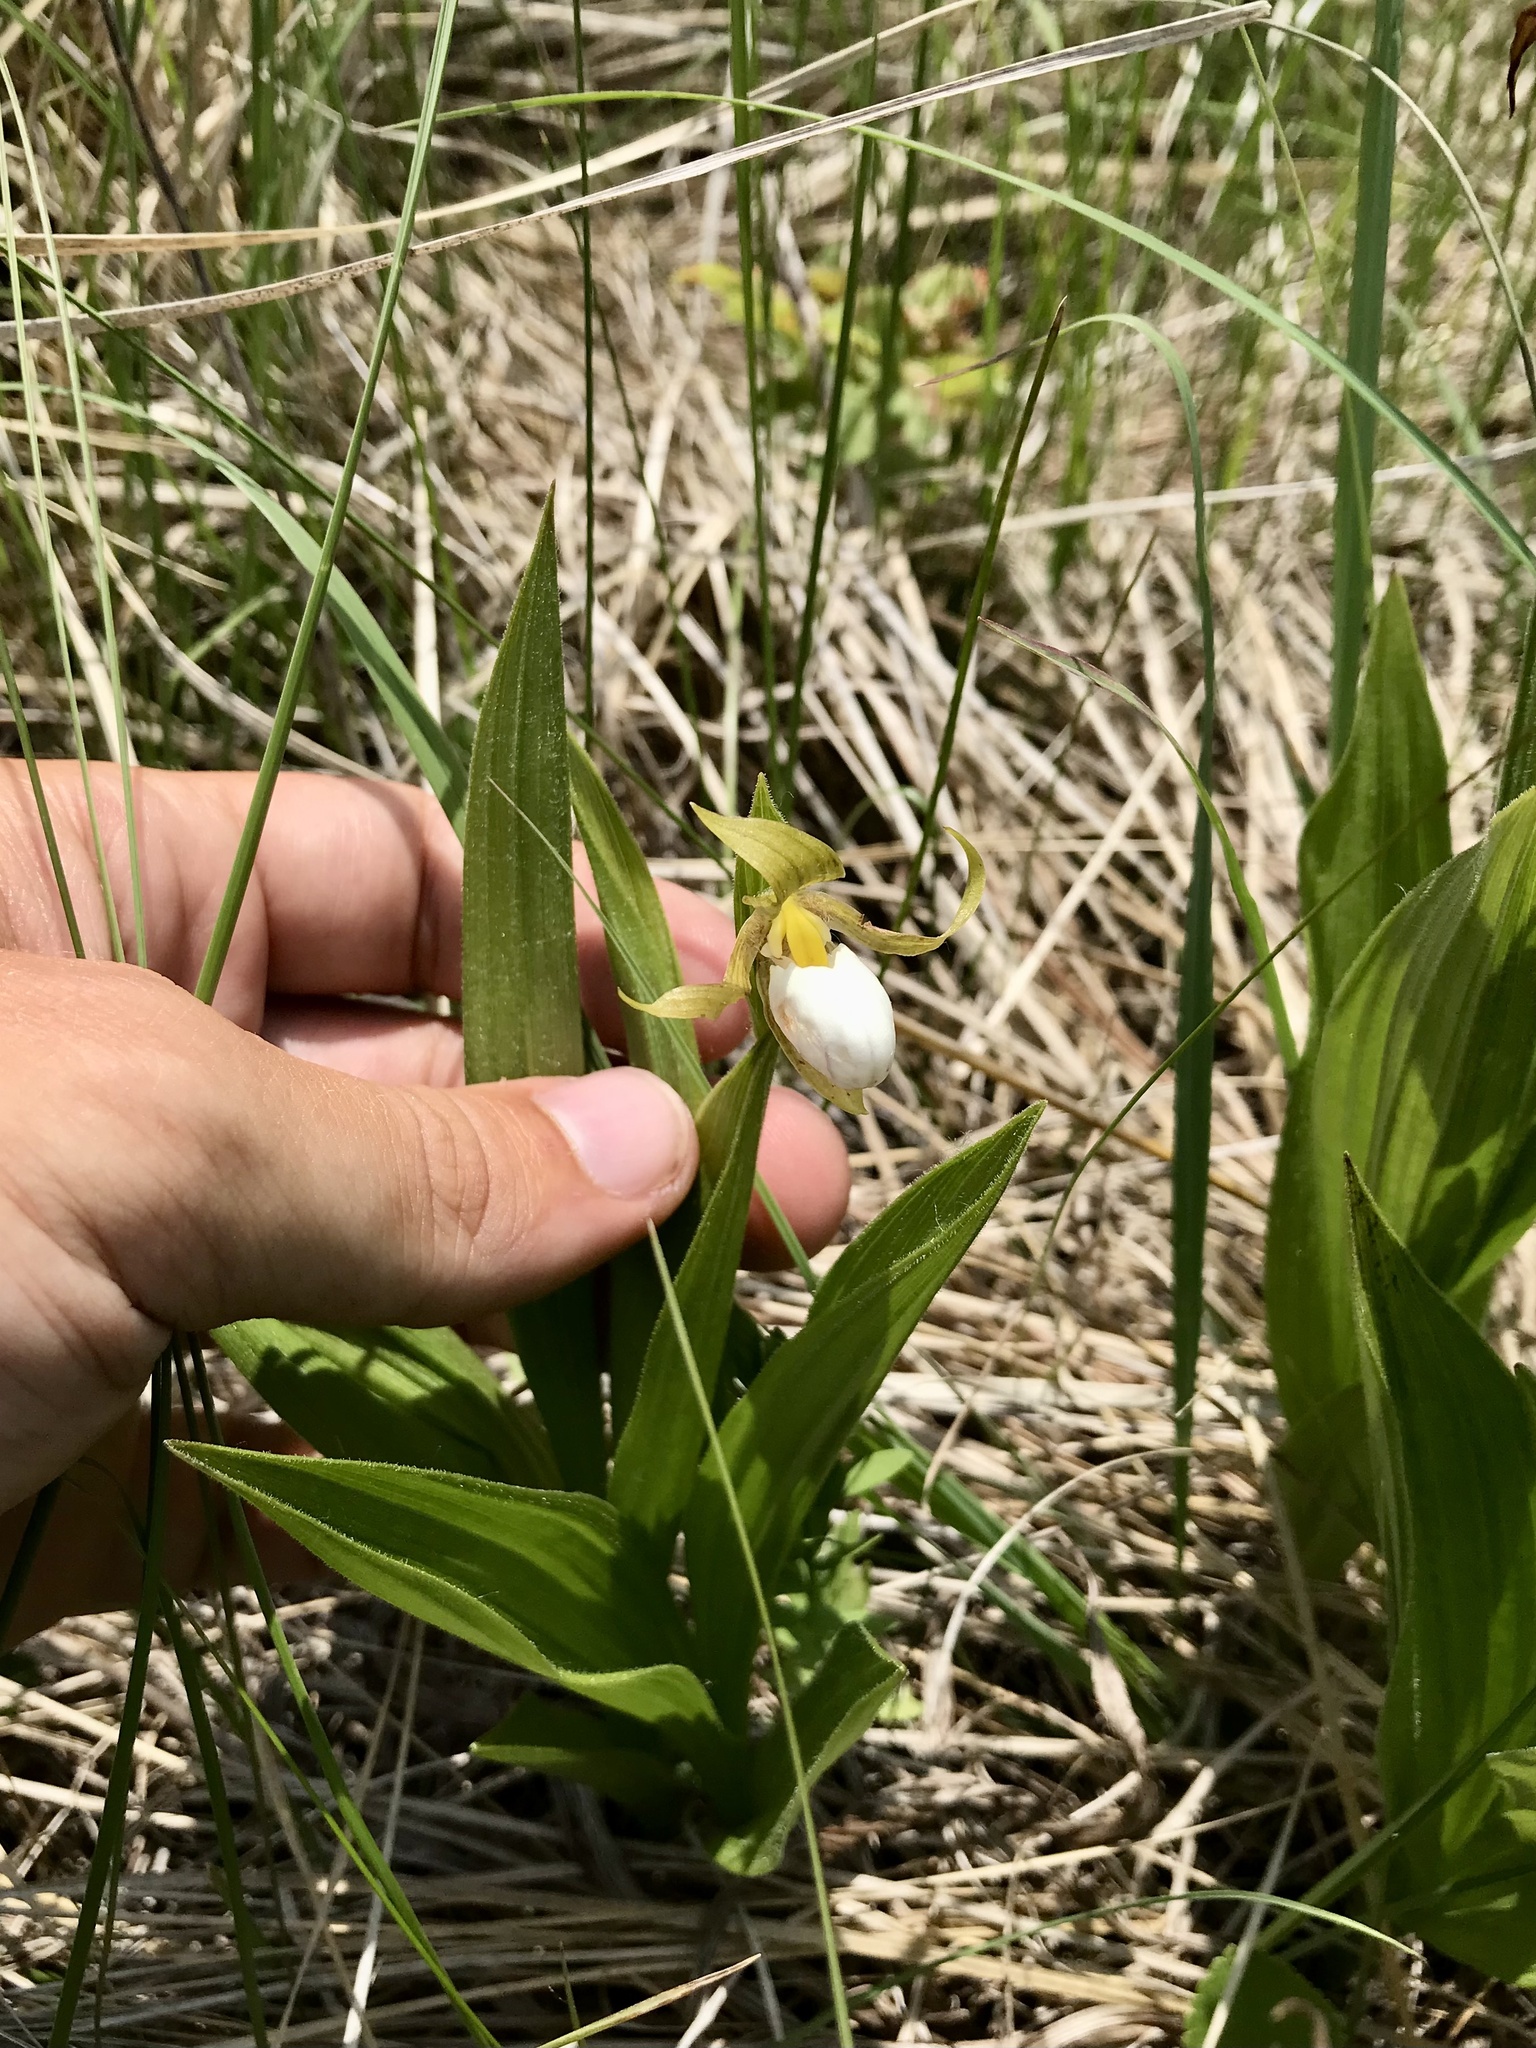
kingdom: Plantae
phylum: Tracheophyta
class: Liliopsida
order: Asparagales
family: Orchidaceae
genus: Cypripedium
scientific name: Cypripedium candidum
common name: White lady's-slipper
